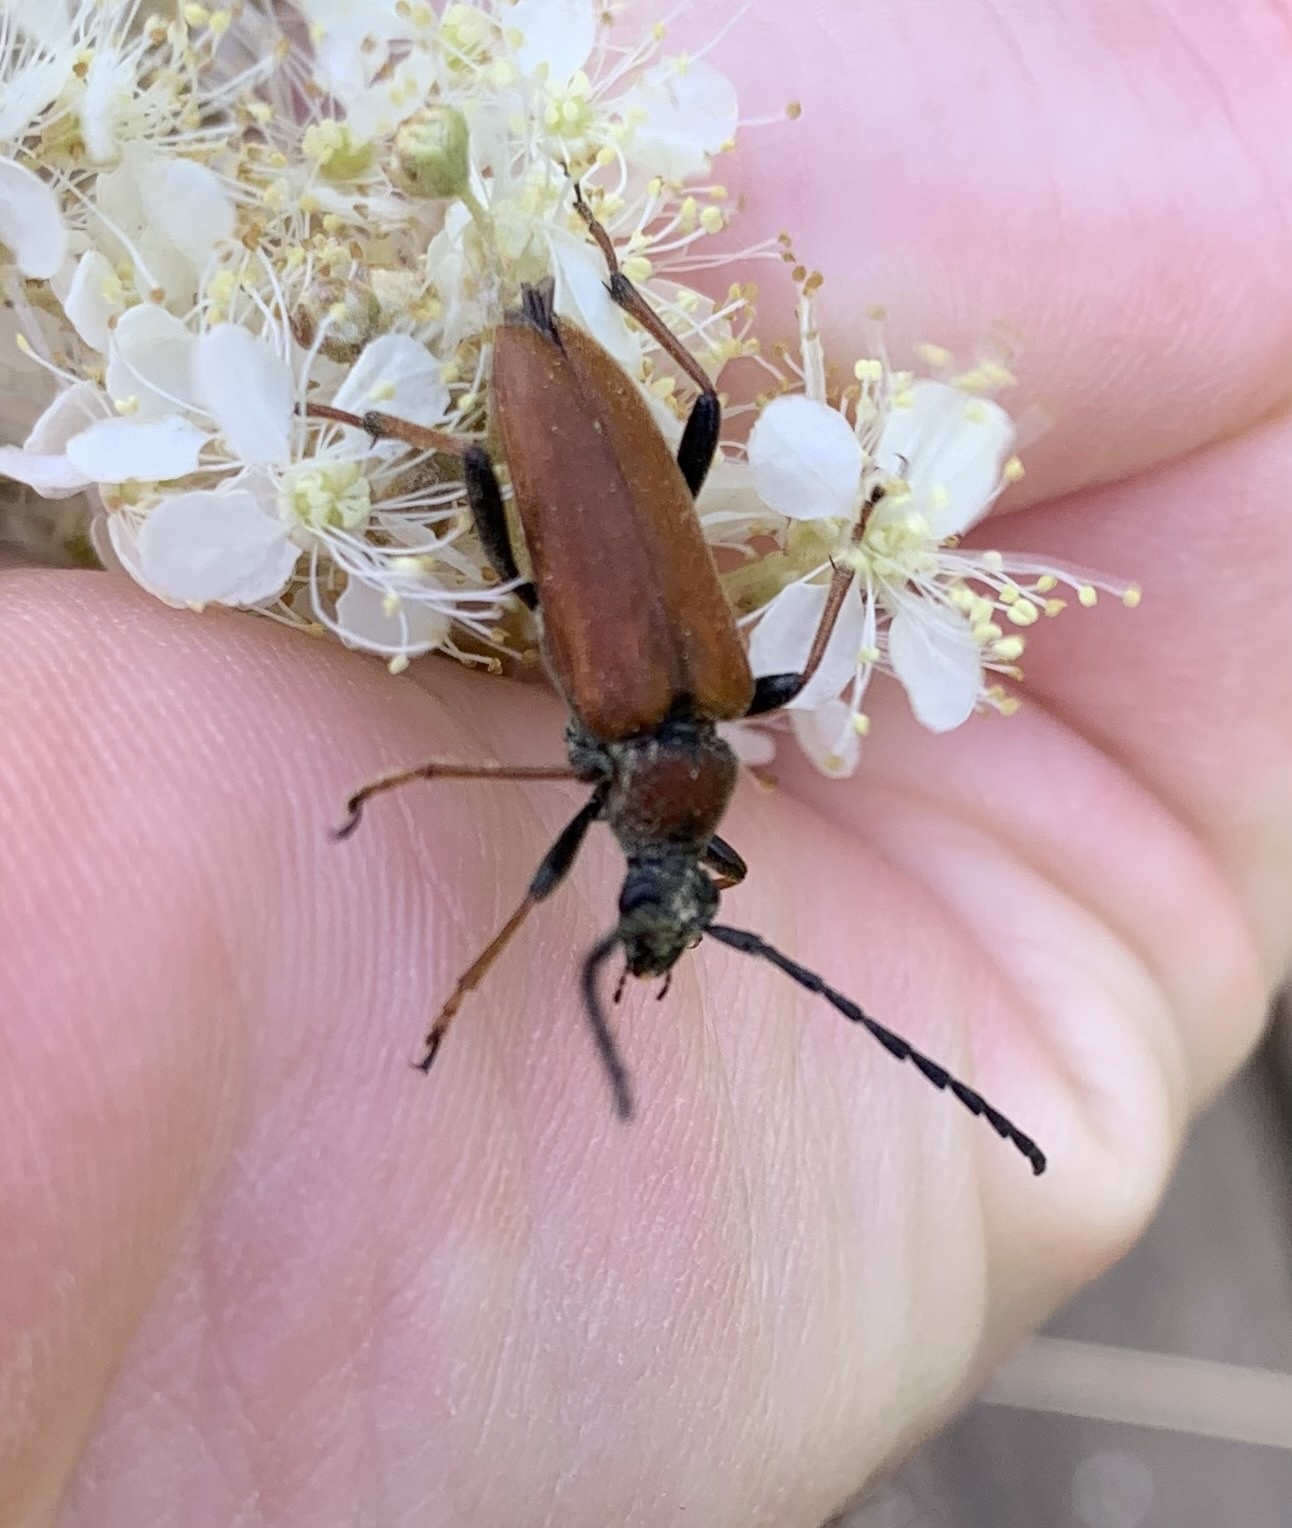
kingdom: Animalia
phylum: Arthropoda
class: Insecta
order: Coleoptera
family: Cerambycidae
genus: Stictoleptura
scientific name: Stictoleptura rubra
